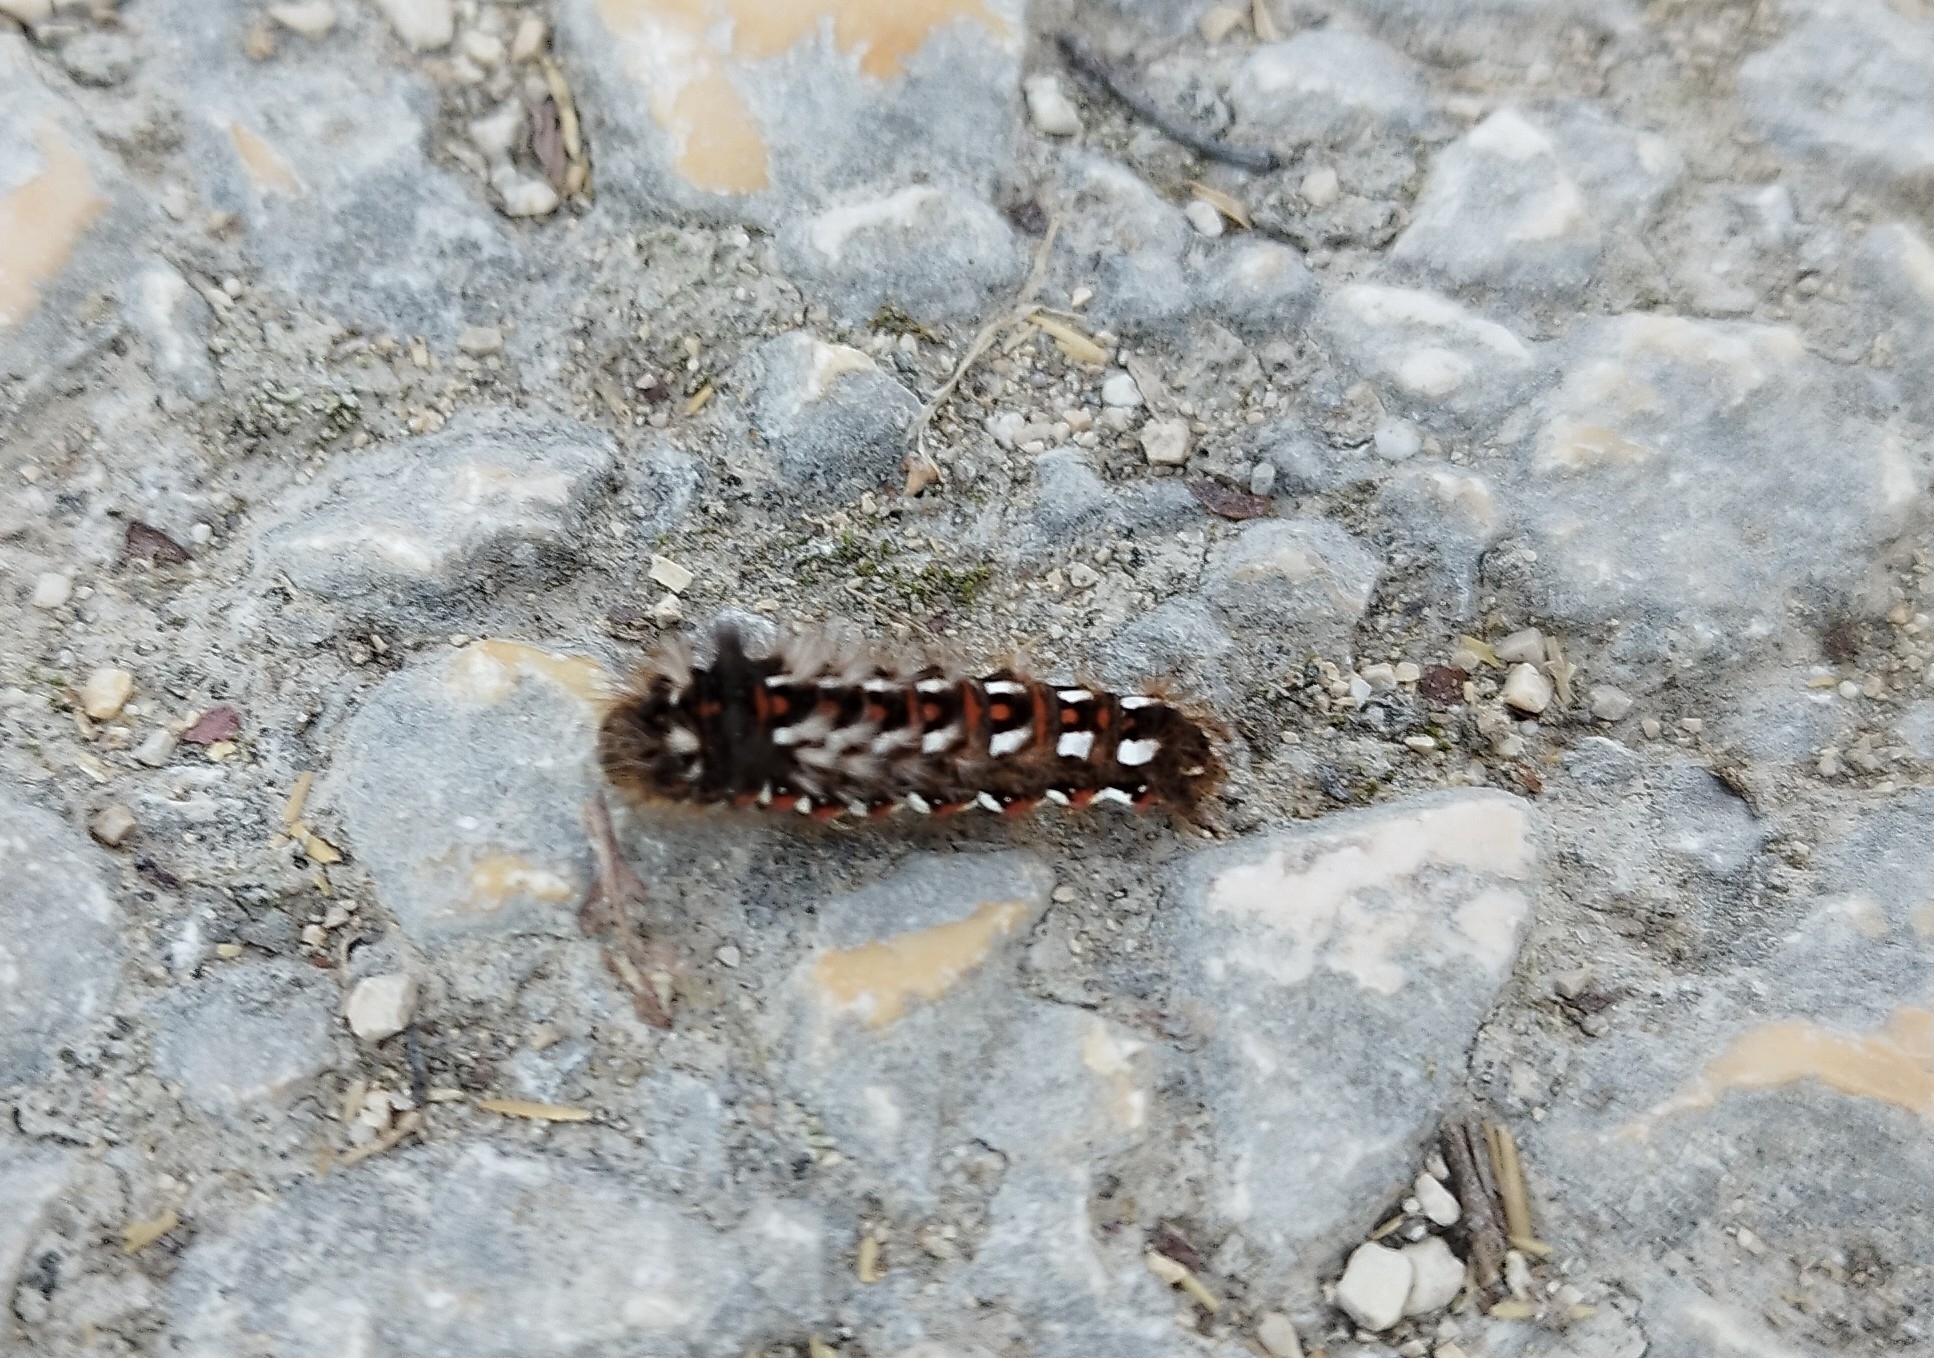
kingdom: Animalia
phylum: Arthropoda
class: Insecta
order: Lepidoptera
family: Noctuidae
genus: Acronicta
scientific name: Acronicta rumicis
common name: Knot grass
